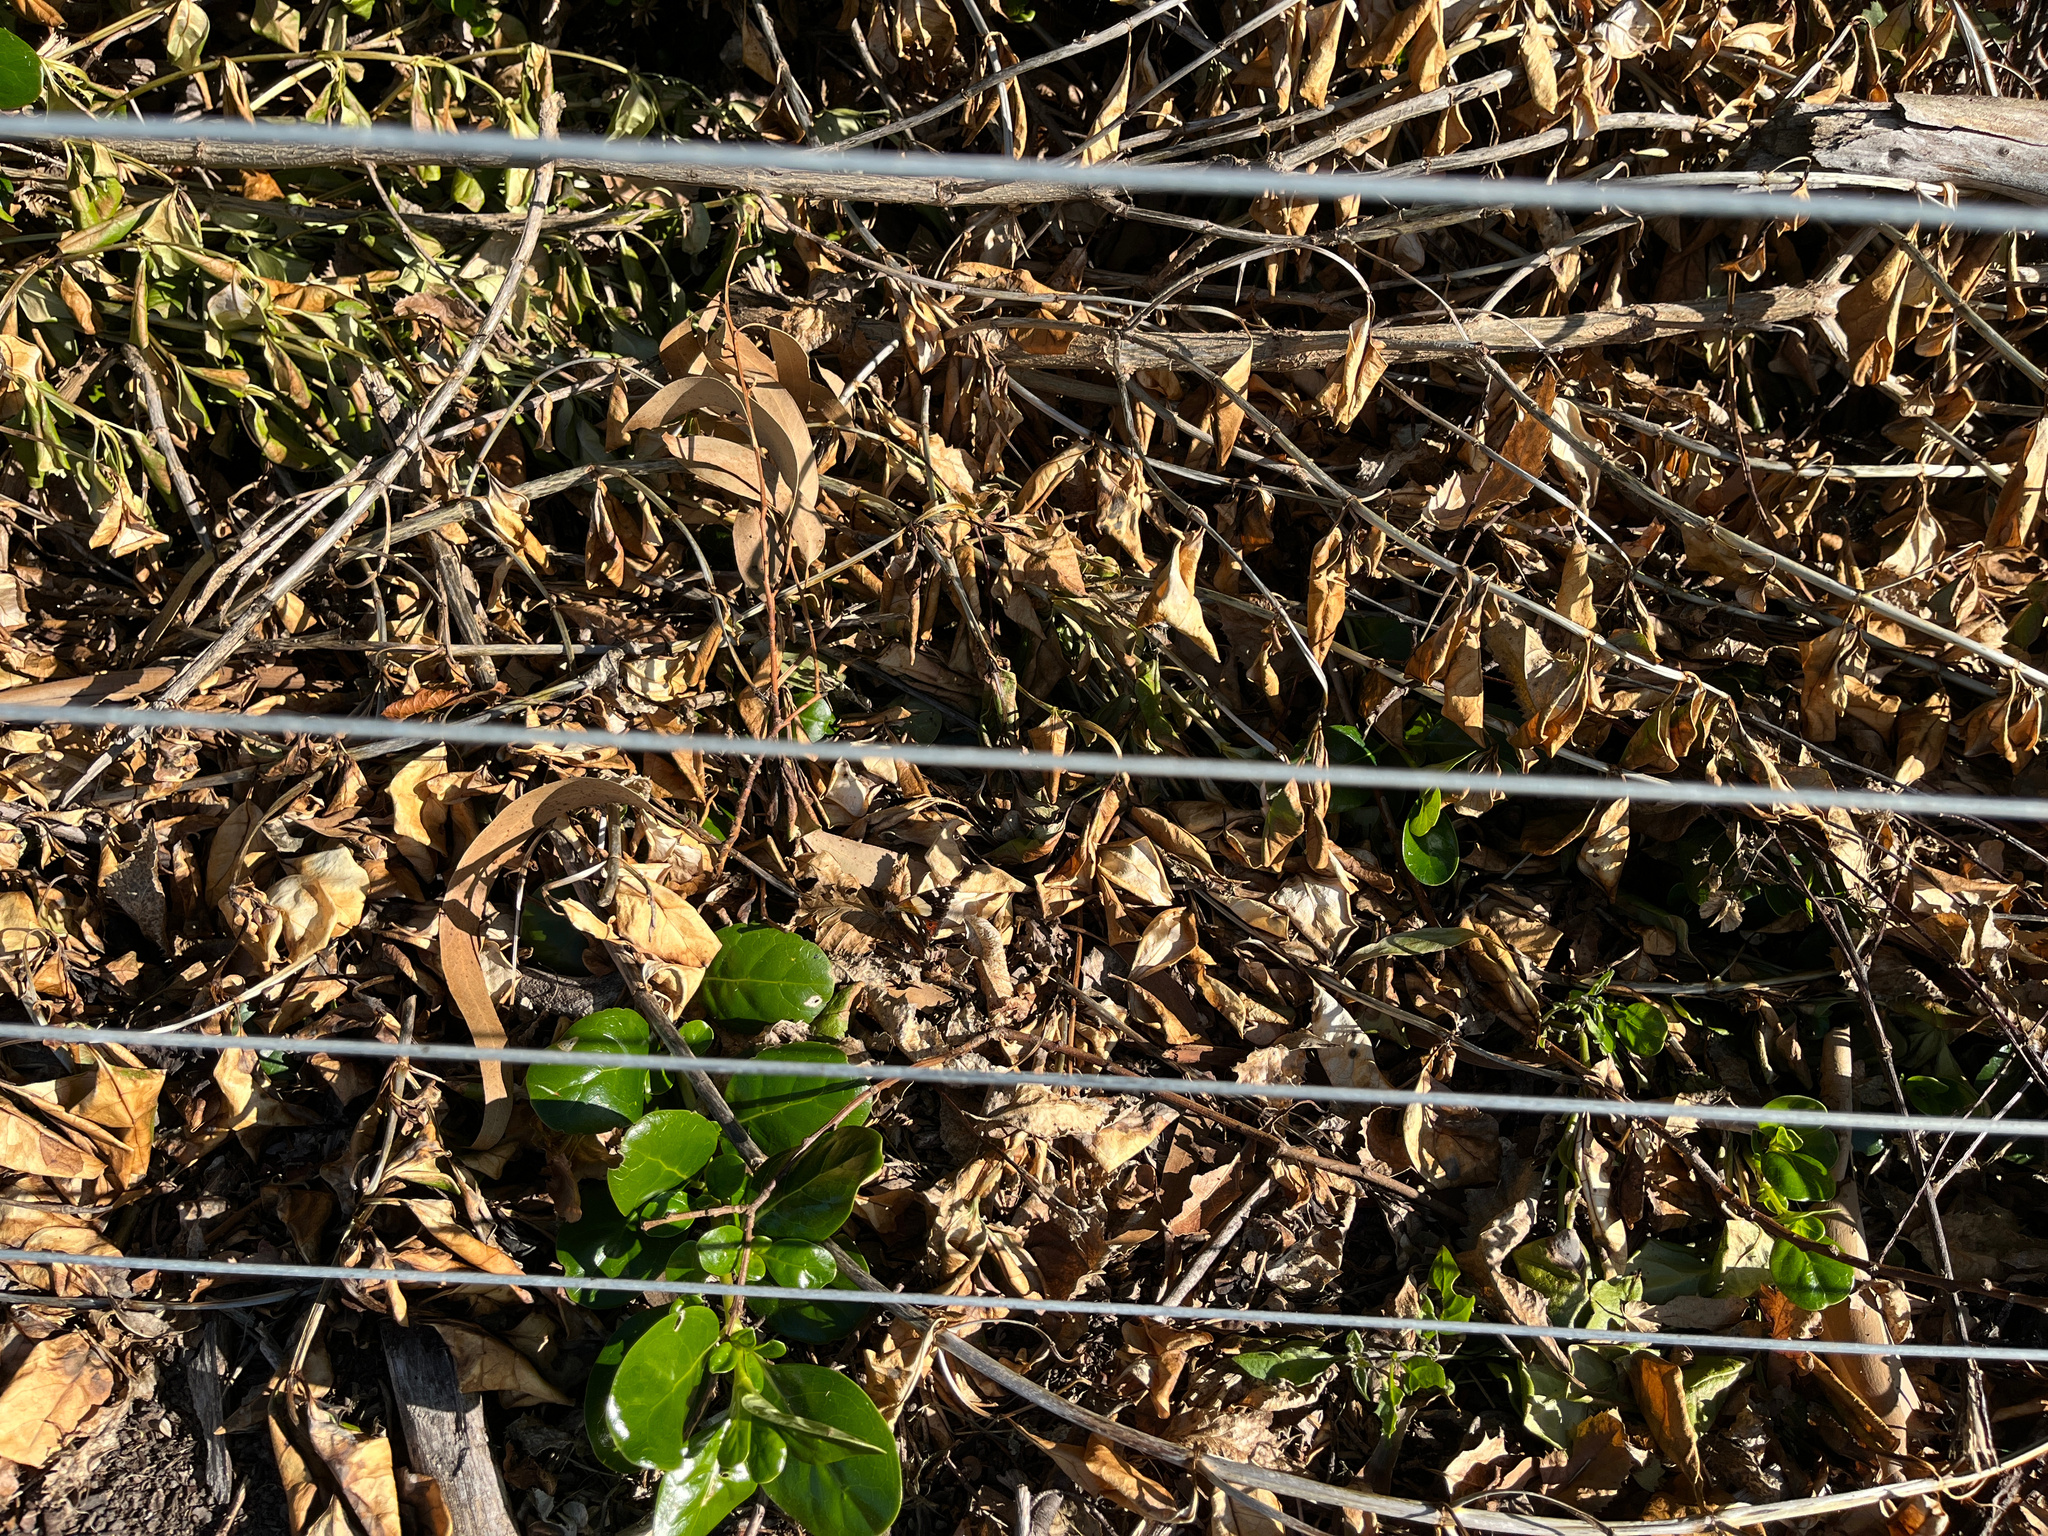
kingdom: Animalia
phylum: Arthropoda
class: Insecta
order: Lepidoptera
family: Nymphalidae
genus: Vanessa
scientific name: Vanessa itea
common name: Yellow admiral
